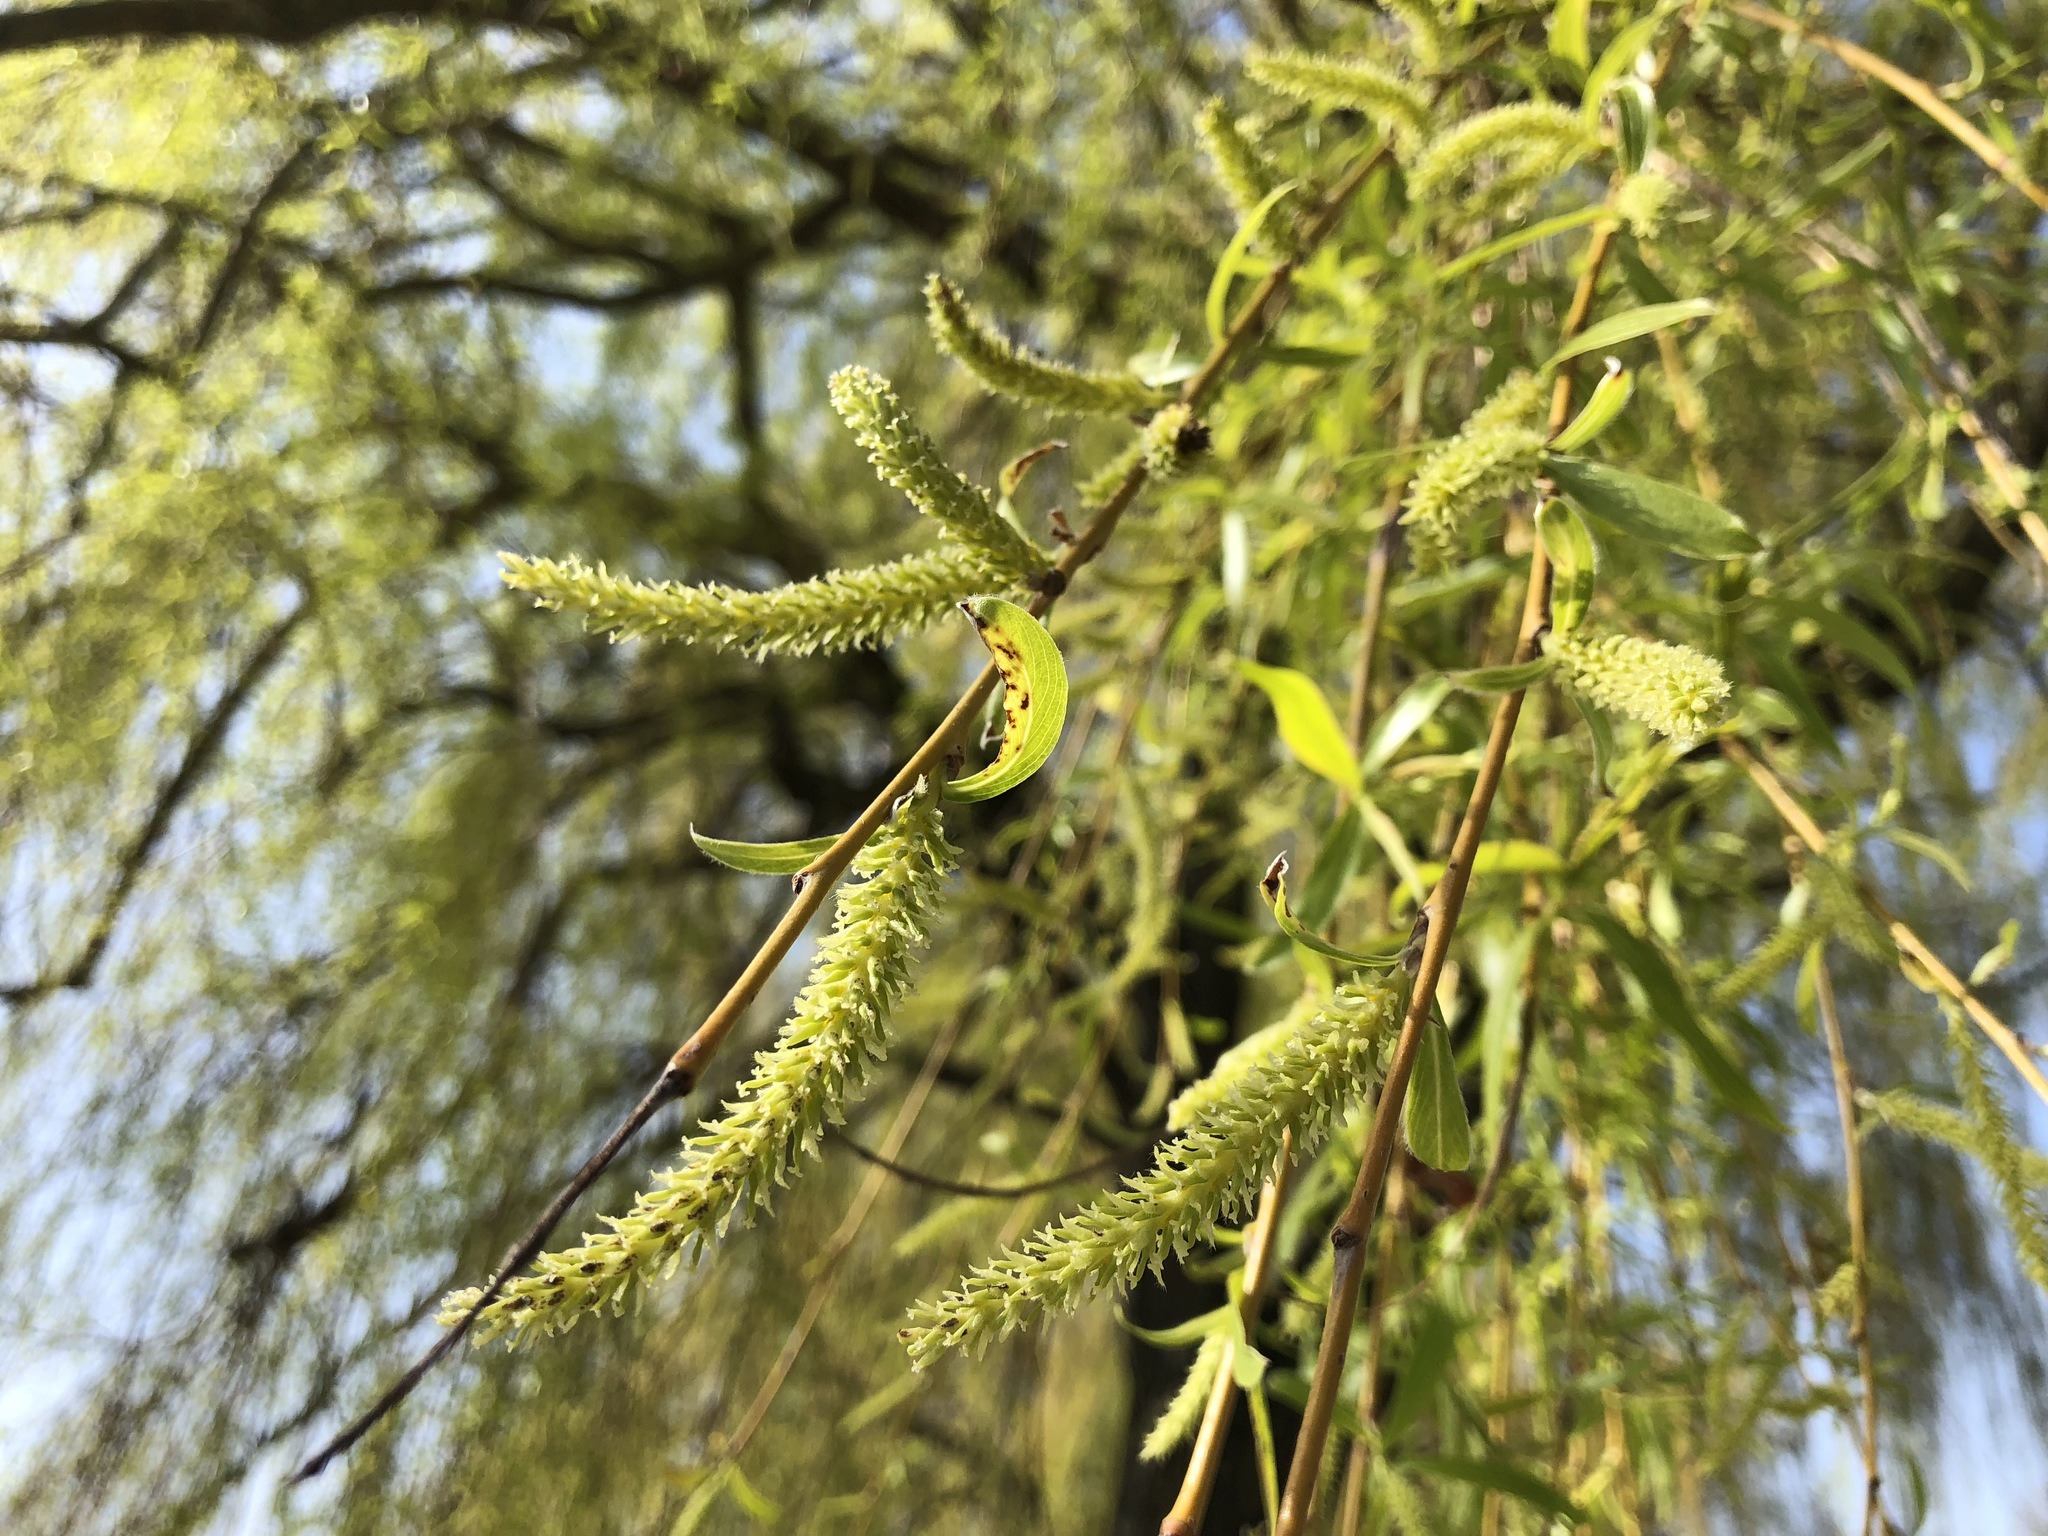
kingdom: Plantae
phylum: Tracheophyta
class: Magnoliopsida
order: Malpighiales
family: Salicaceae
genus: Salix
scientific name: Salix pendulina
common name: Wisconsin weeping willow
